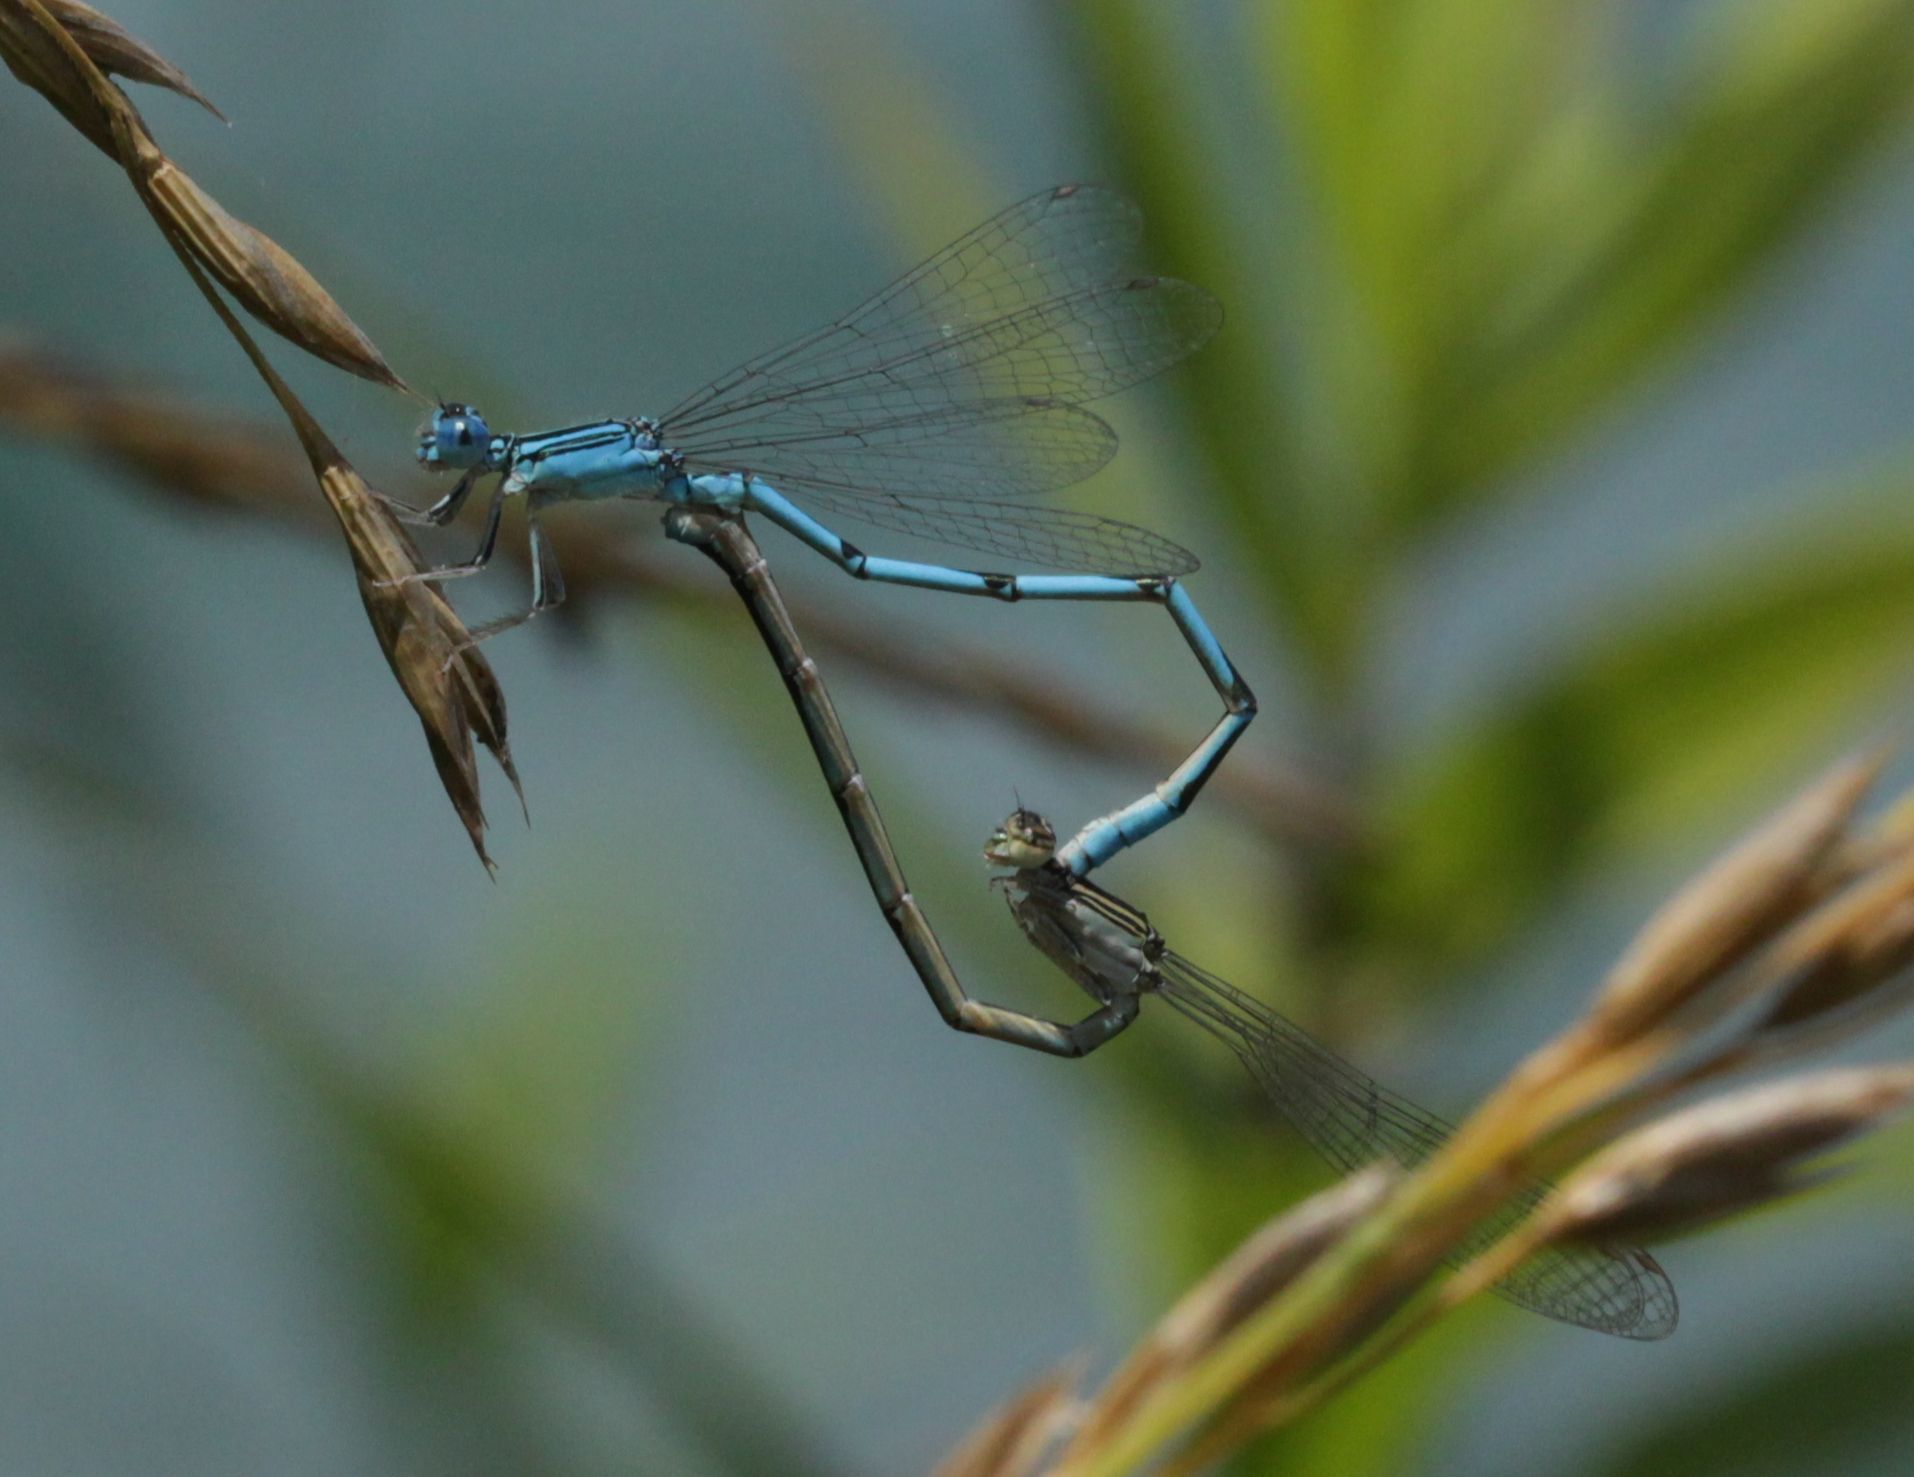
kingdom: Animalia
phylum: Arthropoda
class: Insecta
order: Odonata
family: Coenagrionidae
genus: Enallagma
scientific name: Enallagma basidens
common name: Double-striped bluet
